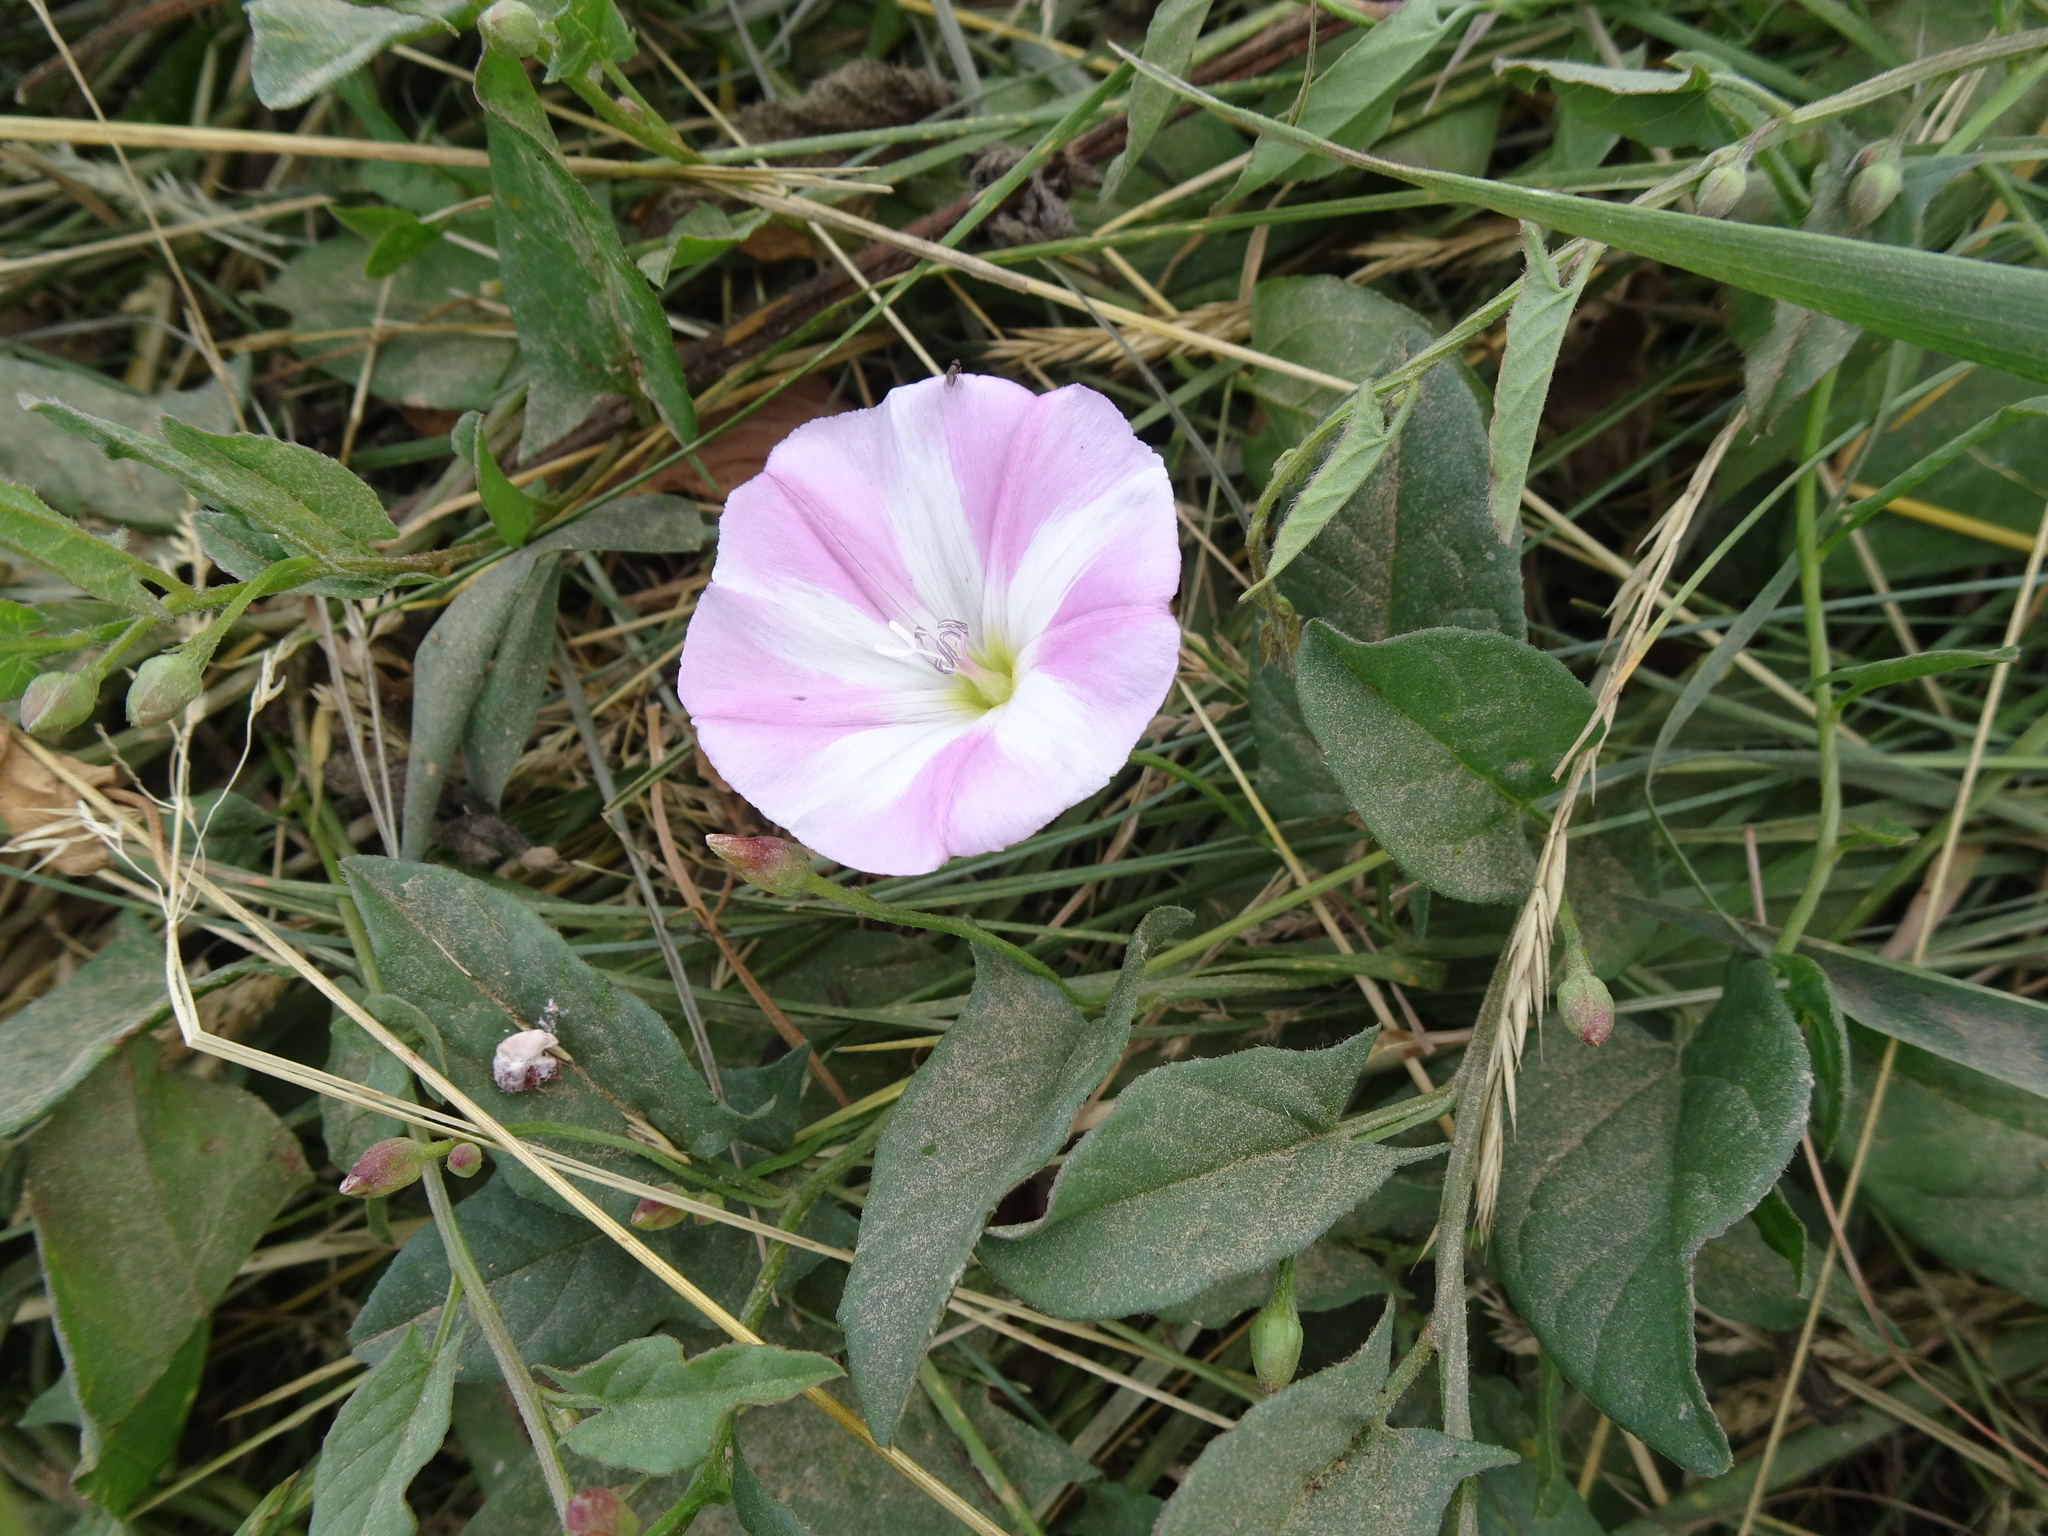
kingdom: Plantae
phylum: Tracheophyta
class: Magnoliopsida
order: Solanales
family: Convolvulaceae
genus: Convolvulus
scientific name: Convolvulus arvensis
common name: Field bindweed
